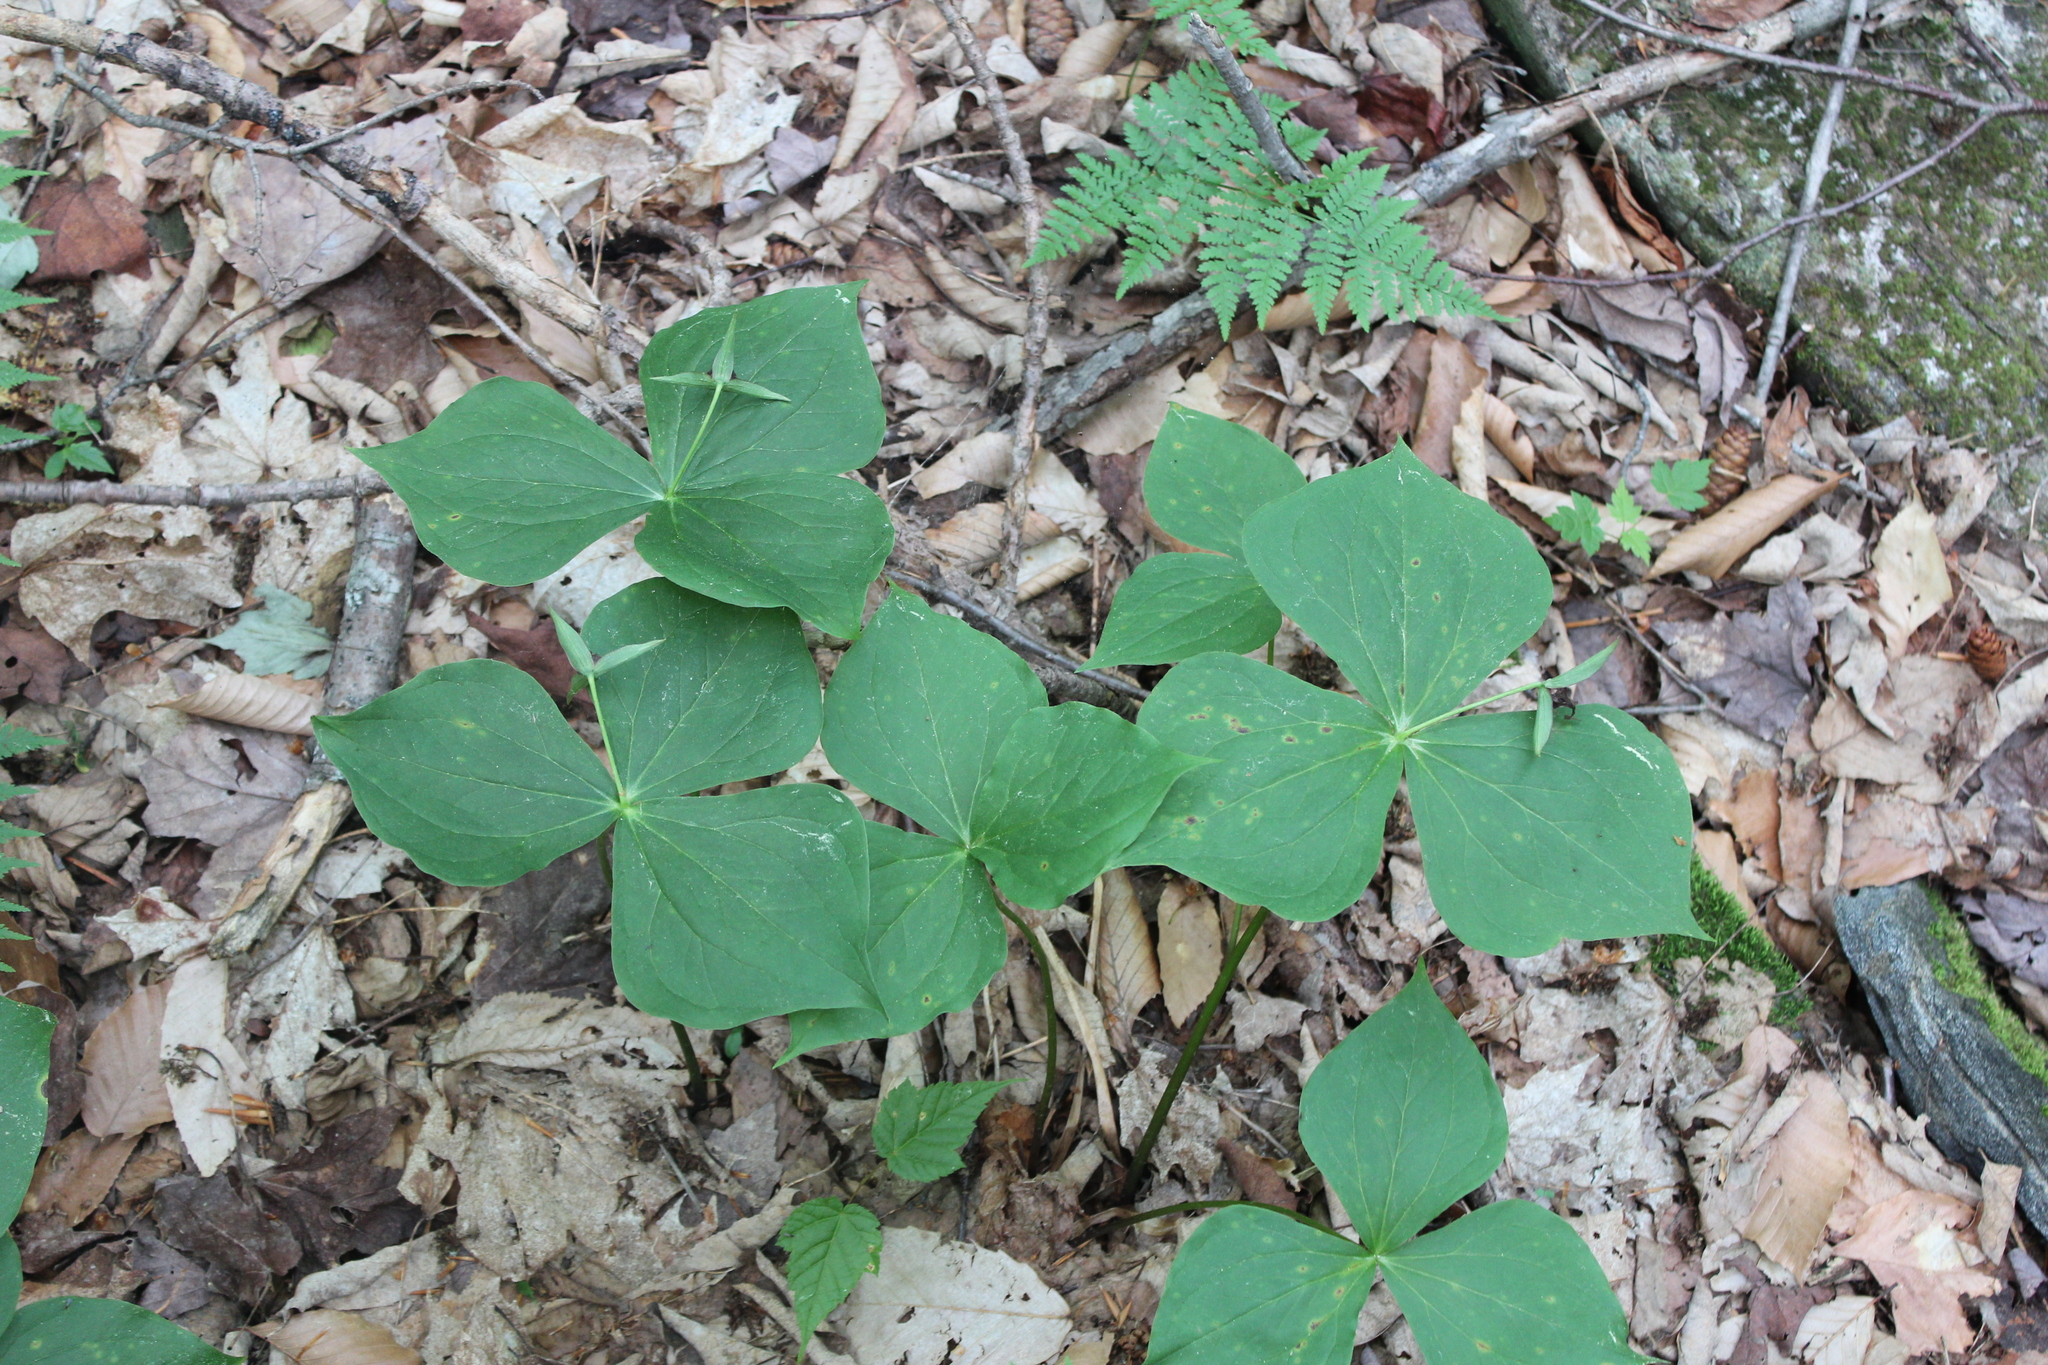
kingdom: Plantae
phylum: Tracheophyta
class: Liliopsida
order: Liliales
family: Melanthiaceae
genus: Trillium
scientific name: Trillium erectum
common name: Purple trillium
